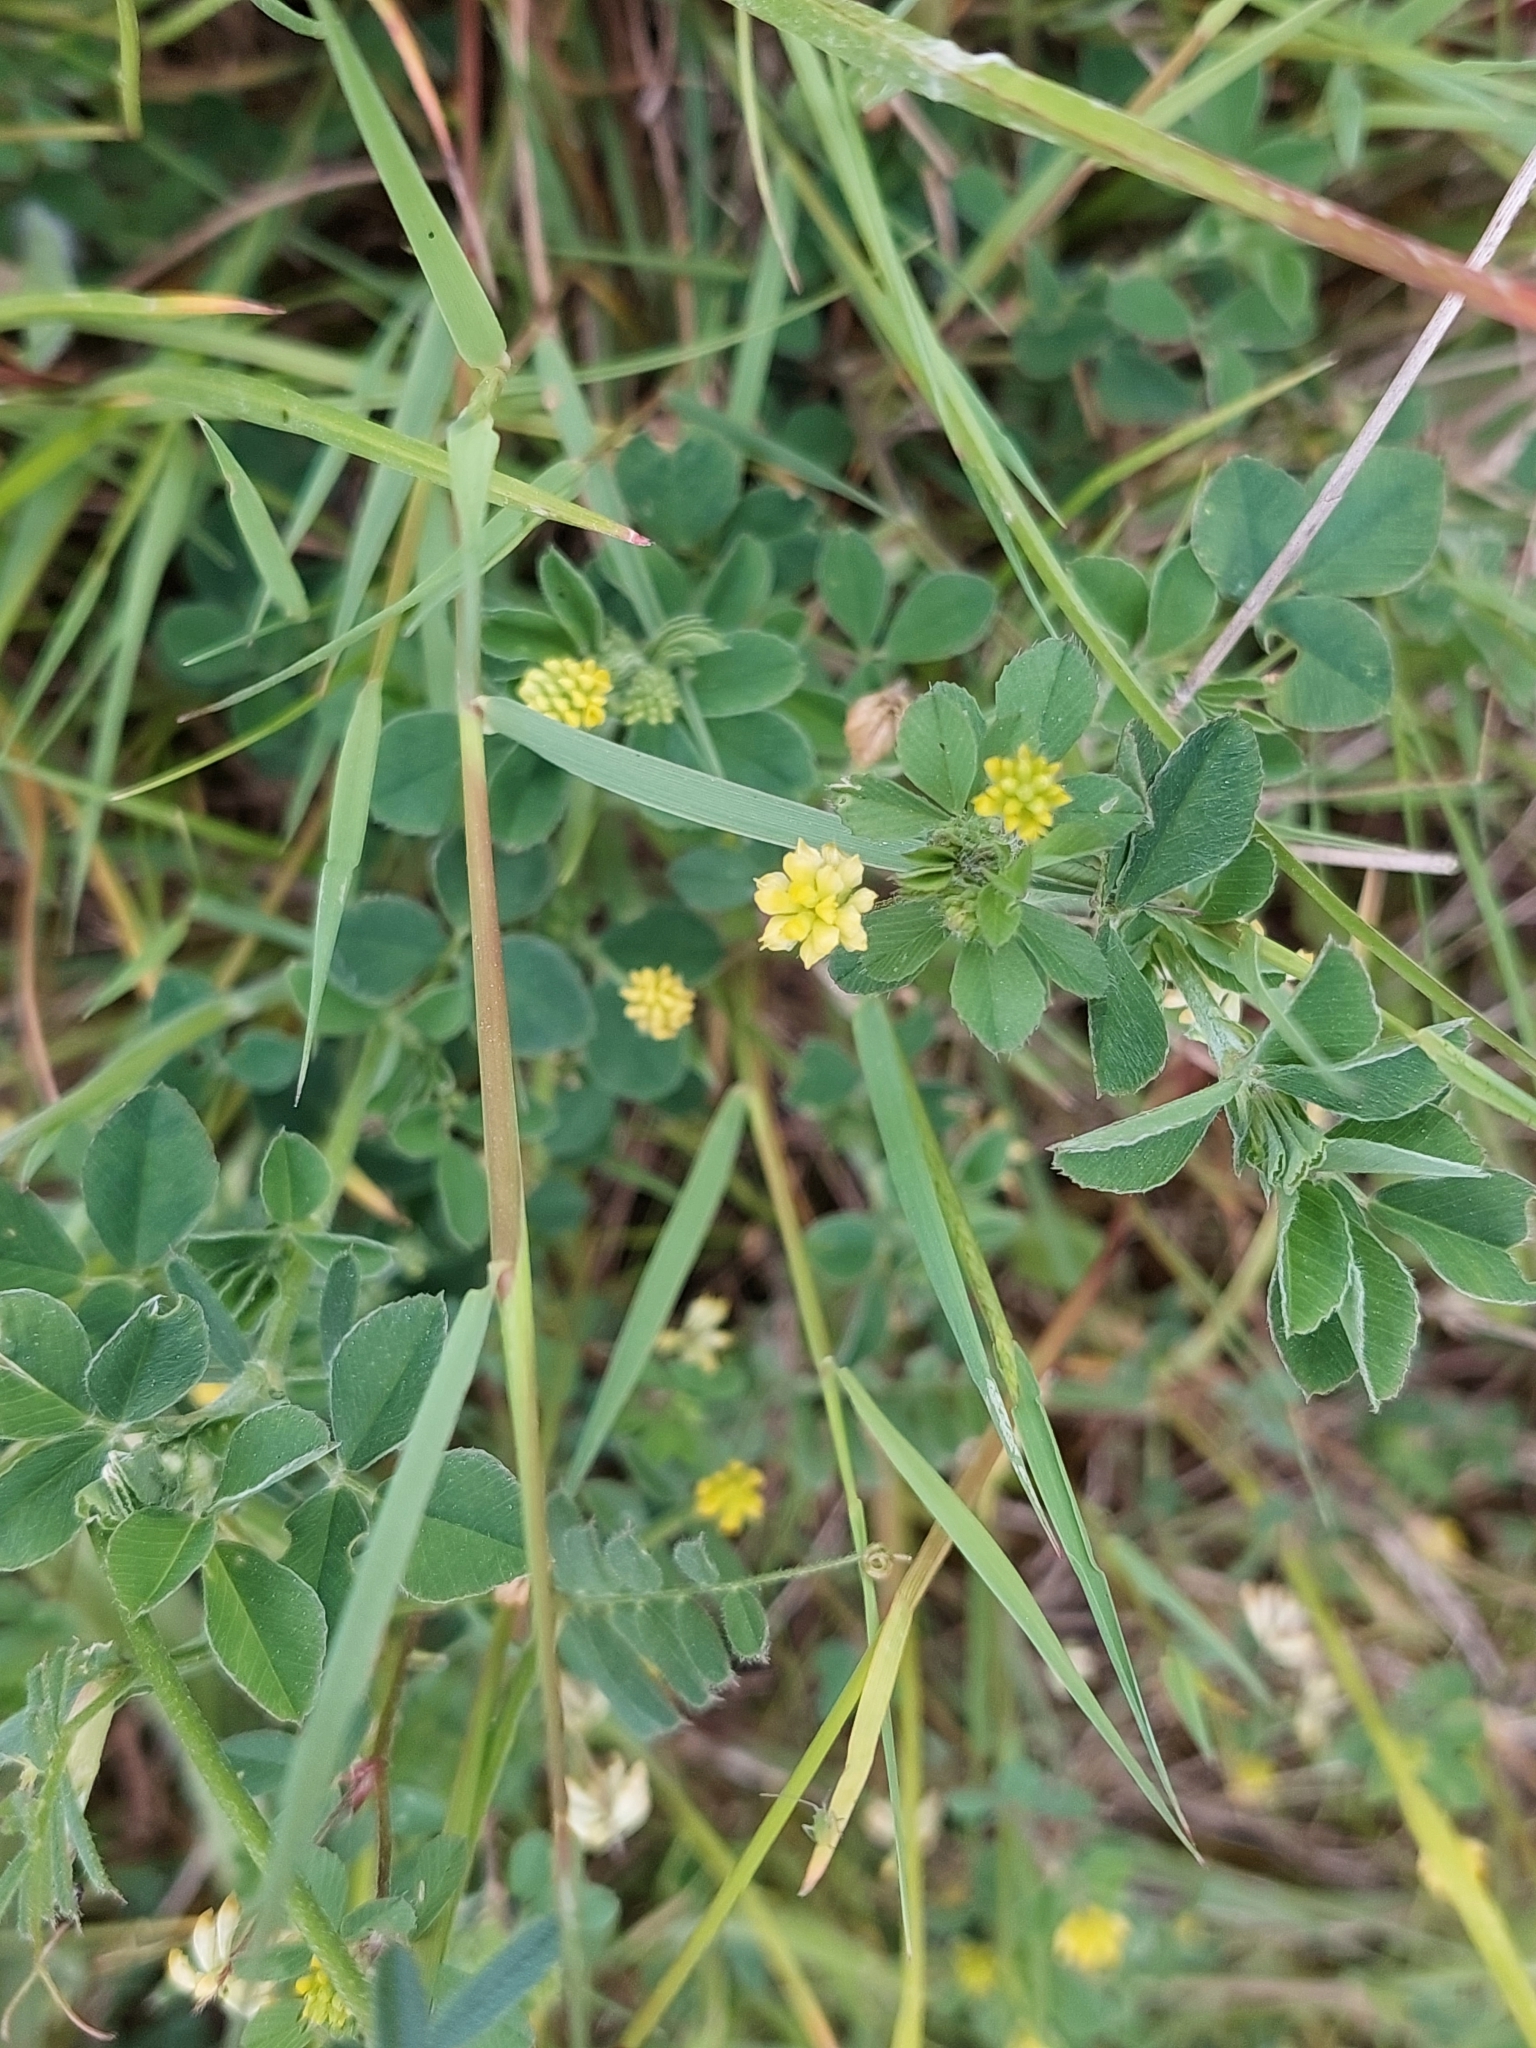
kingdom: Plantae
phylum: Tracheophyta
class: Magnoliopsida
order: Fabales
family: Fabaceae
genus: Medicago
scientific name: Medicago lupulina
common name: Black medick
